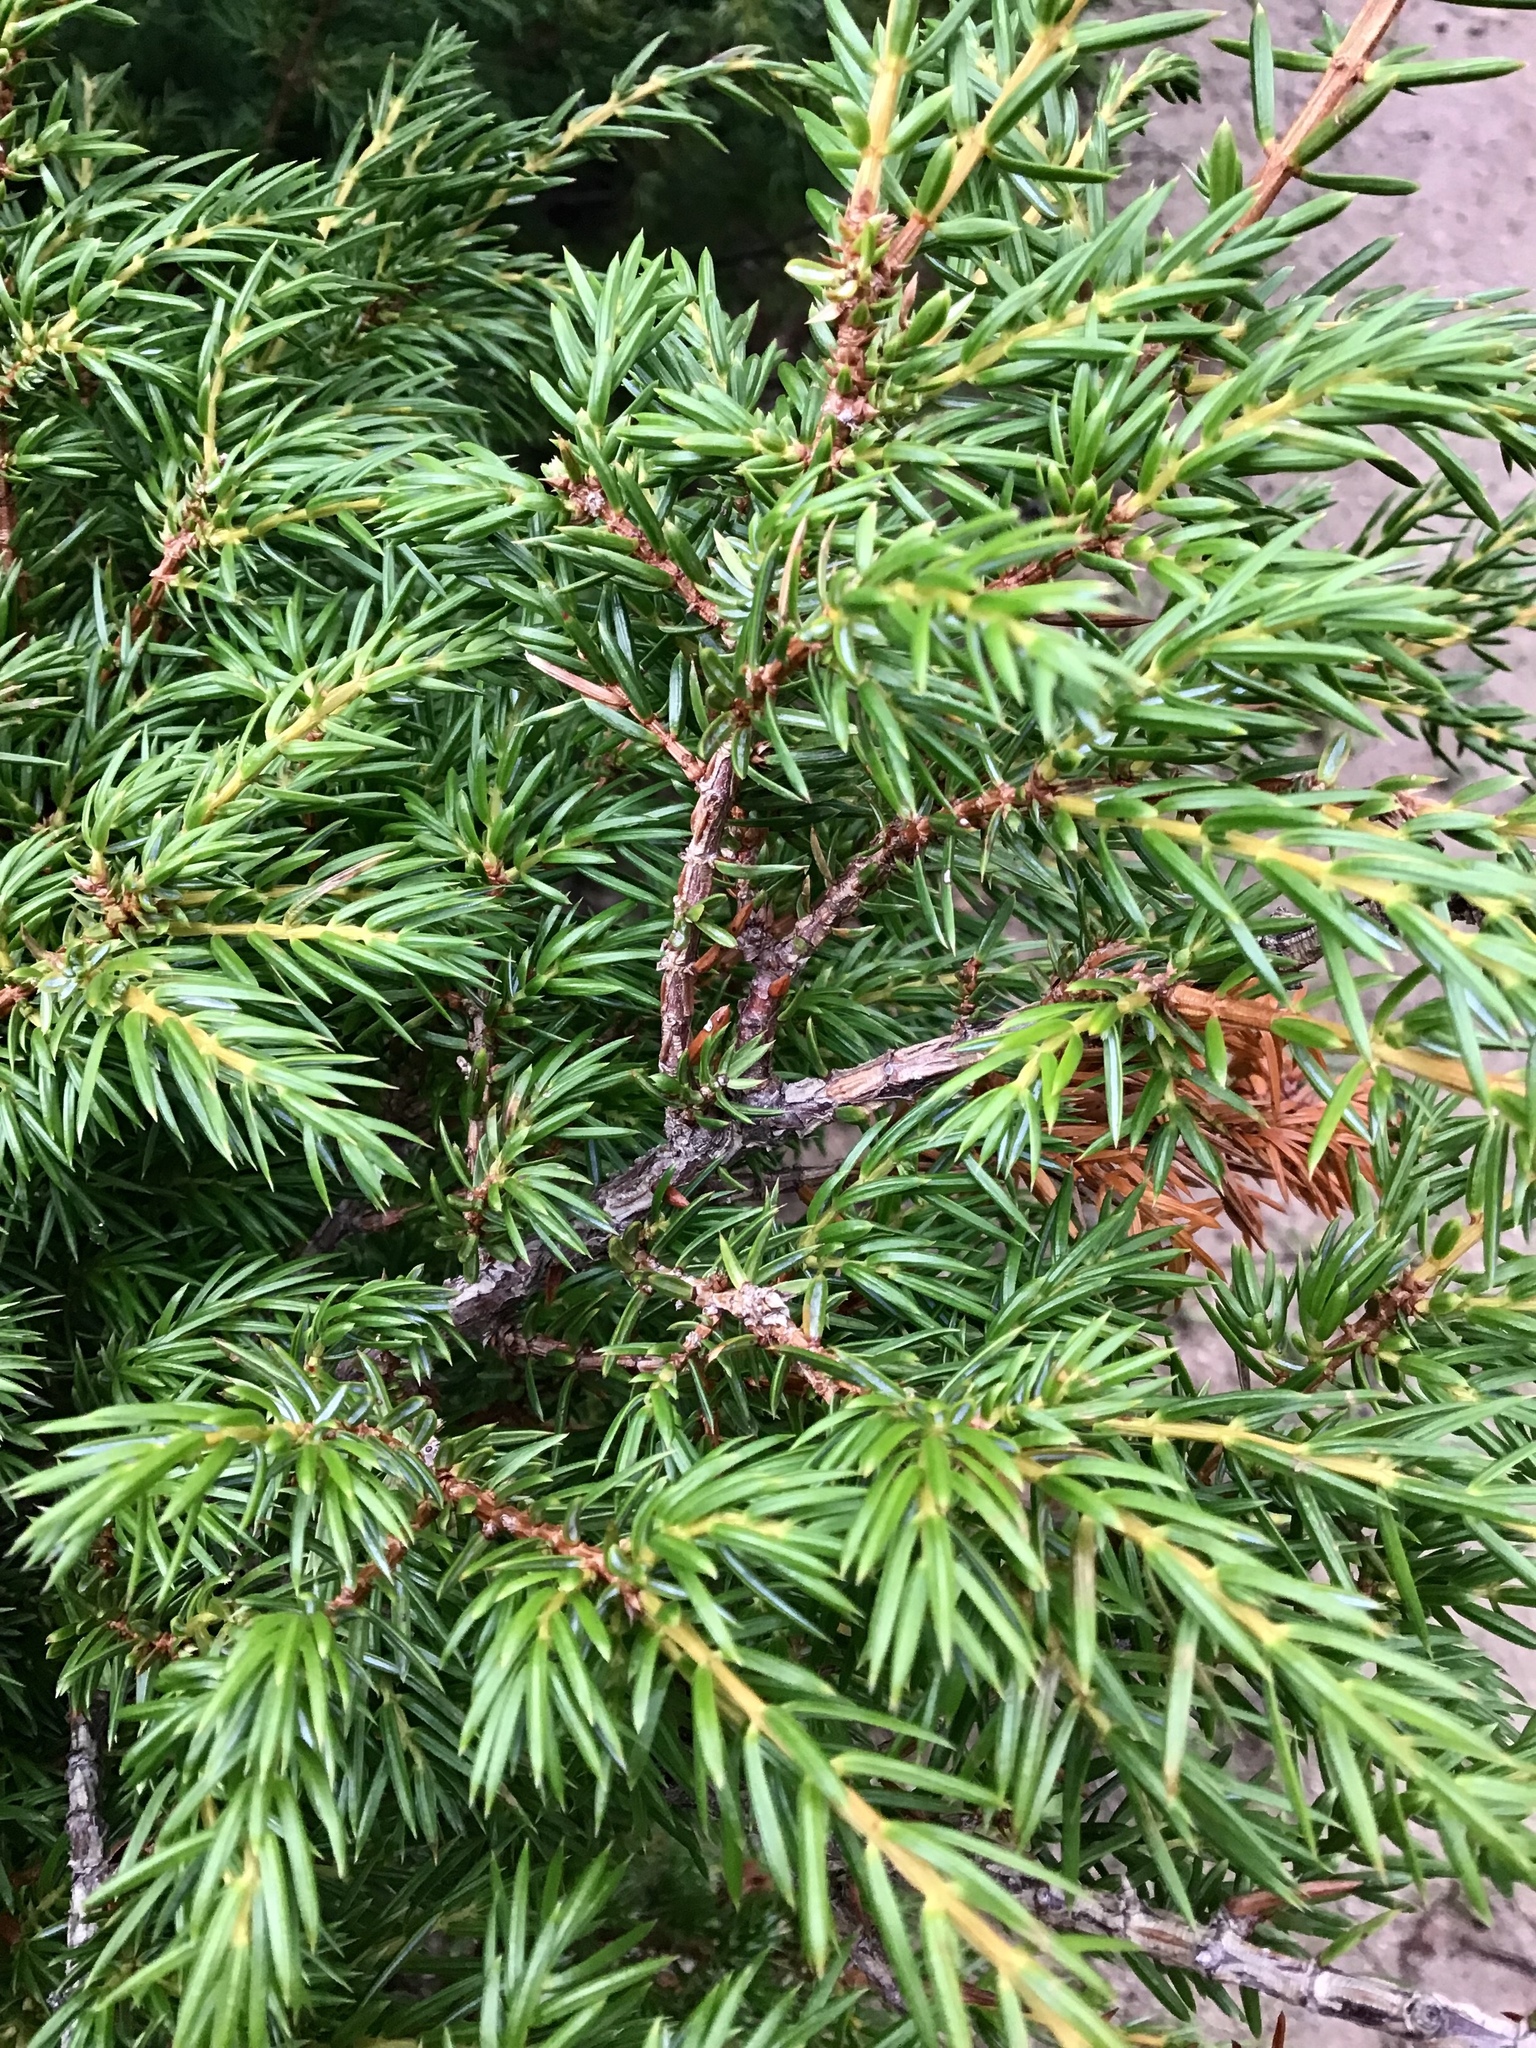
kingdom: Plantae
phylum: Tracheophyta
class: Pinopsida
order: Pinales
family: Cupressaceae
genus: Juniperus
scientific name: Juniperus communis
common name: Common juniper
